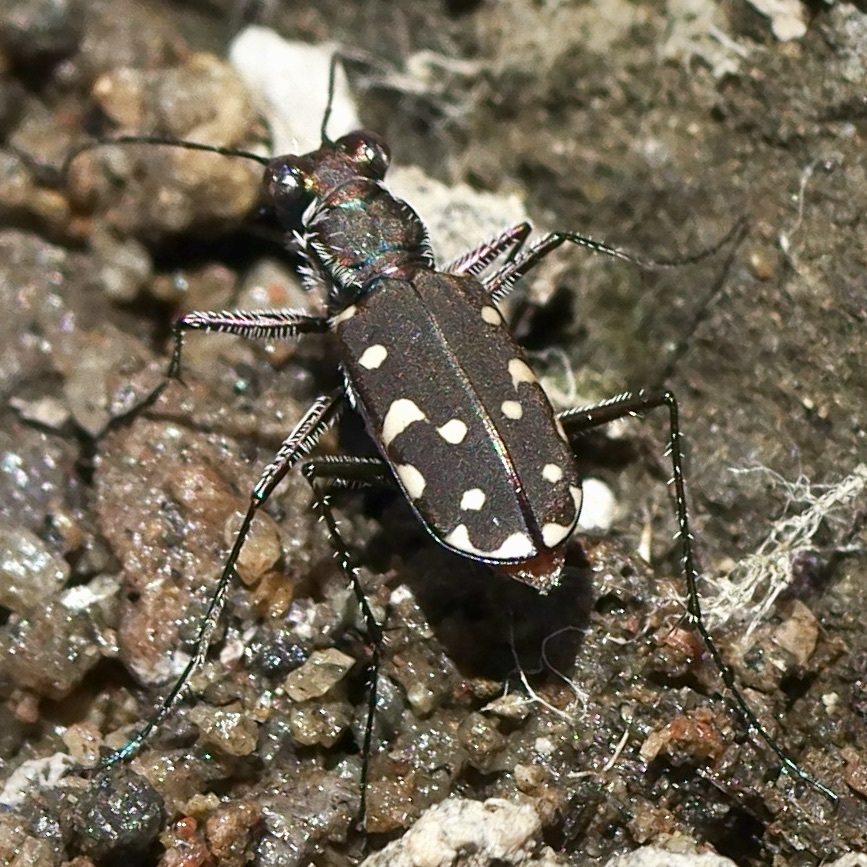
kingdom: Animalia
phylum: Arthropoda
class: Insecta
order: Coleoptera
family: Carabidae
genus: Cicindela
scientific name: Cicindela sedecimpunctata
